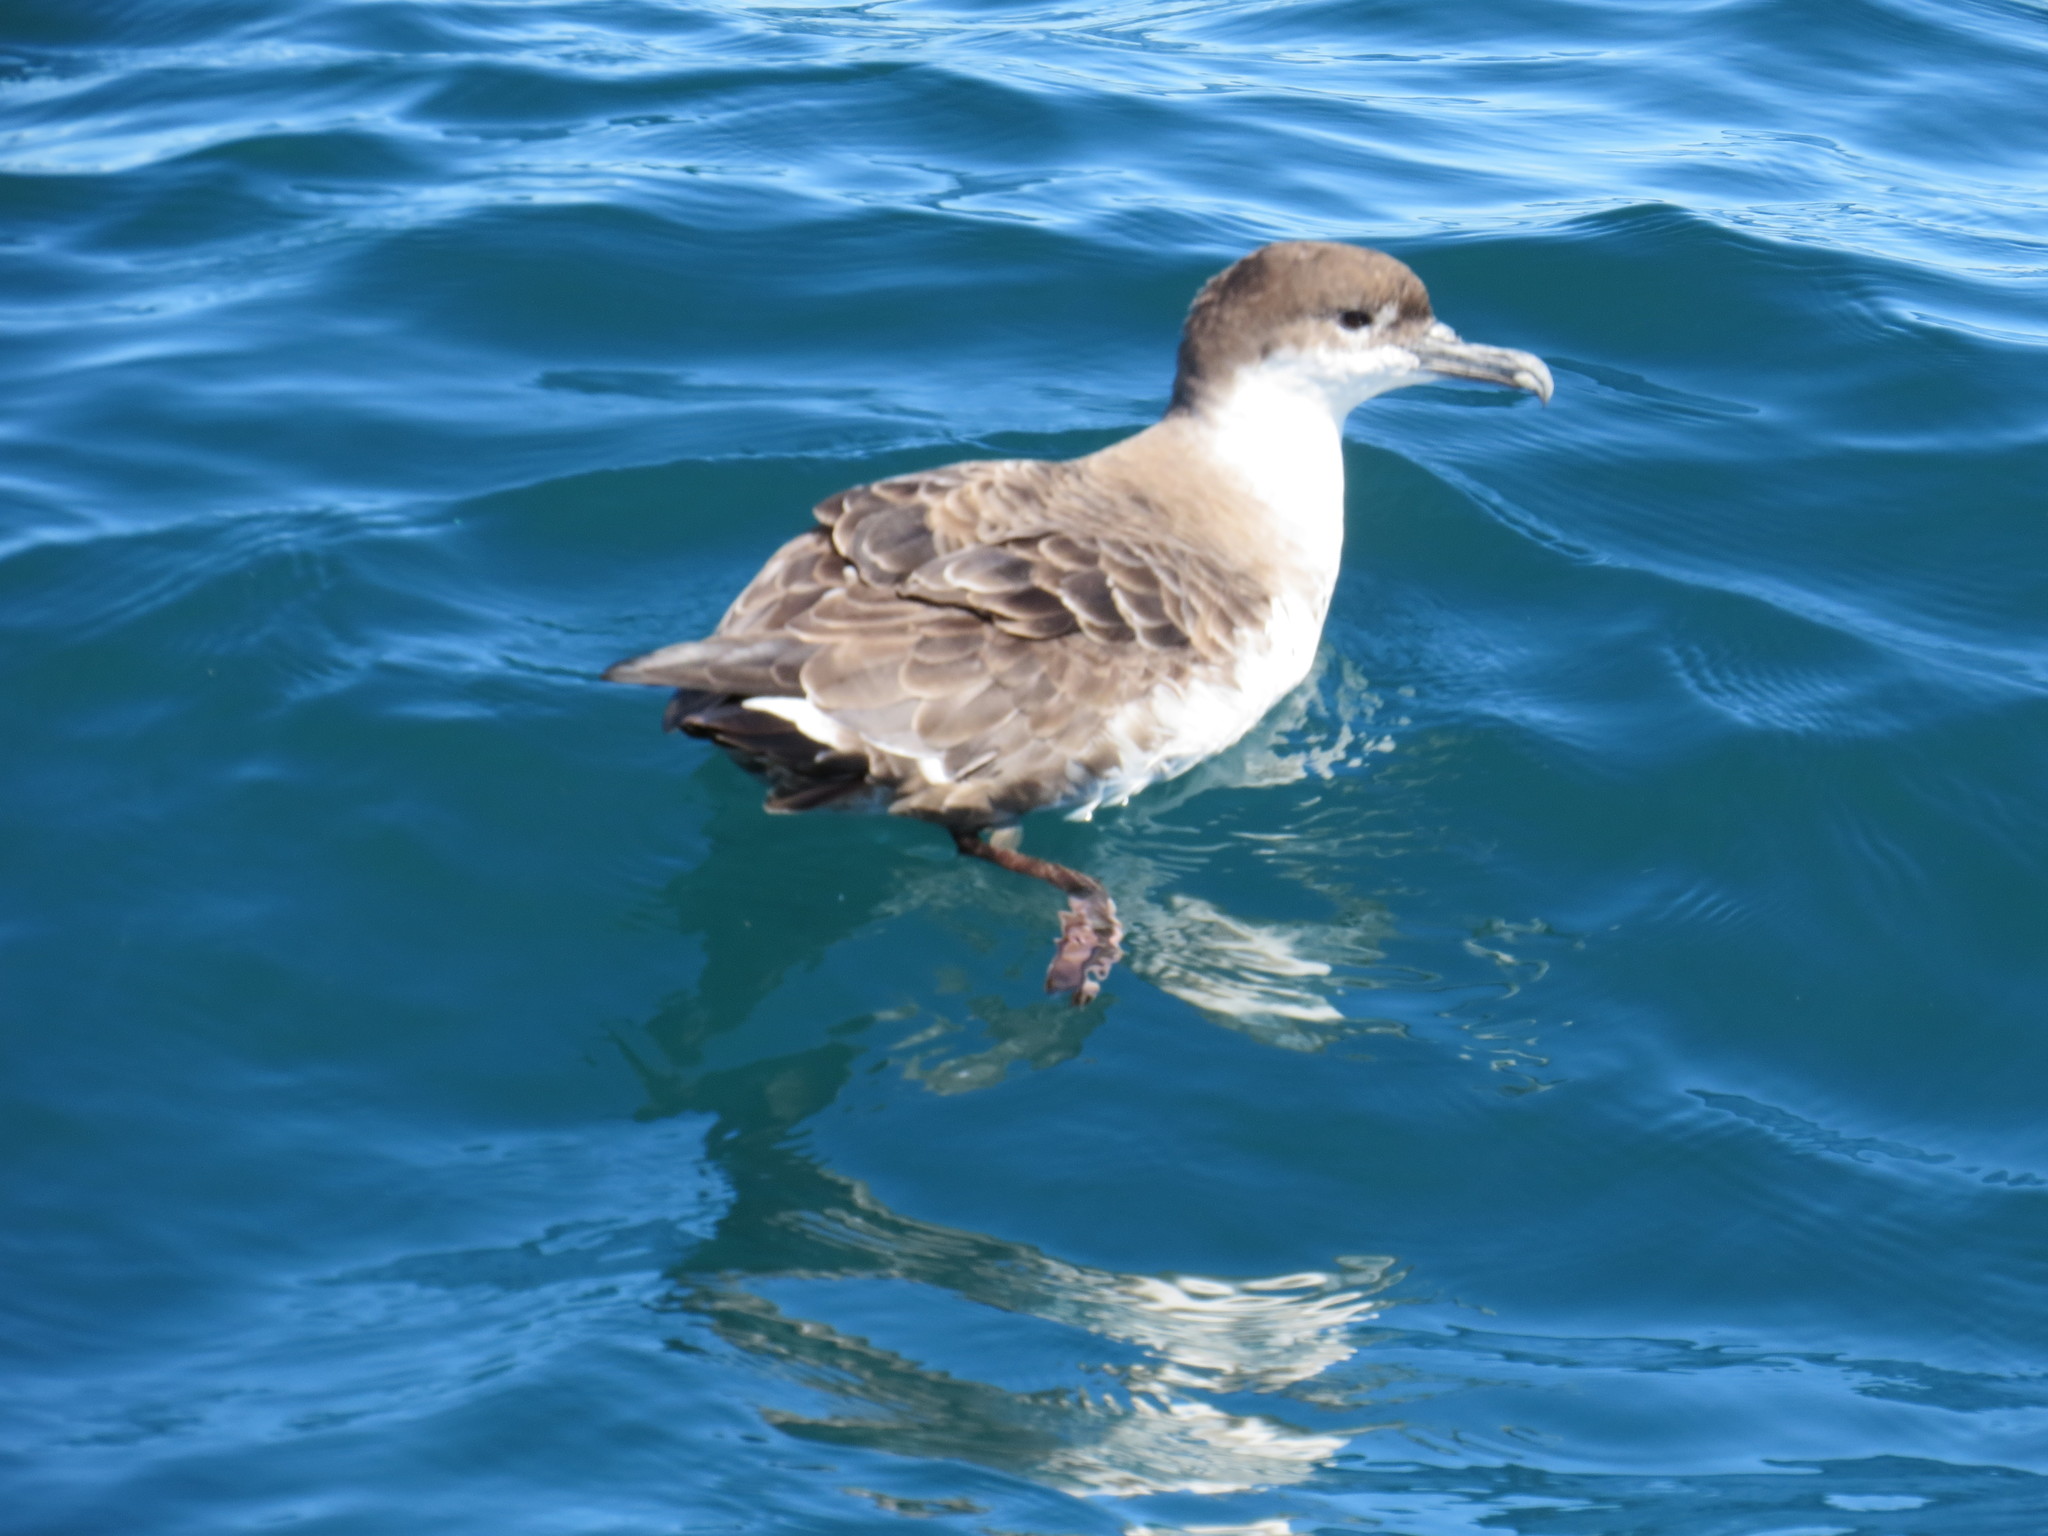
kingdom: Animalia
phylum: Chordata
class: Aves
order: Procellariiformes
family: Procellariidae
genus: Puffinus
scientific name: Puffinus gravis
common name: Great shearwater
